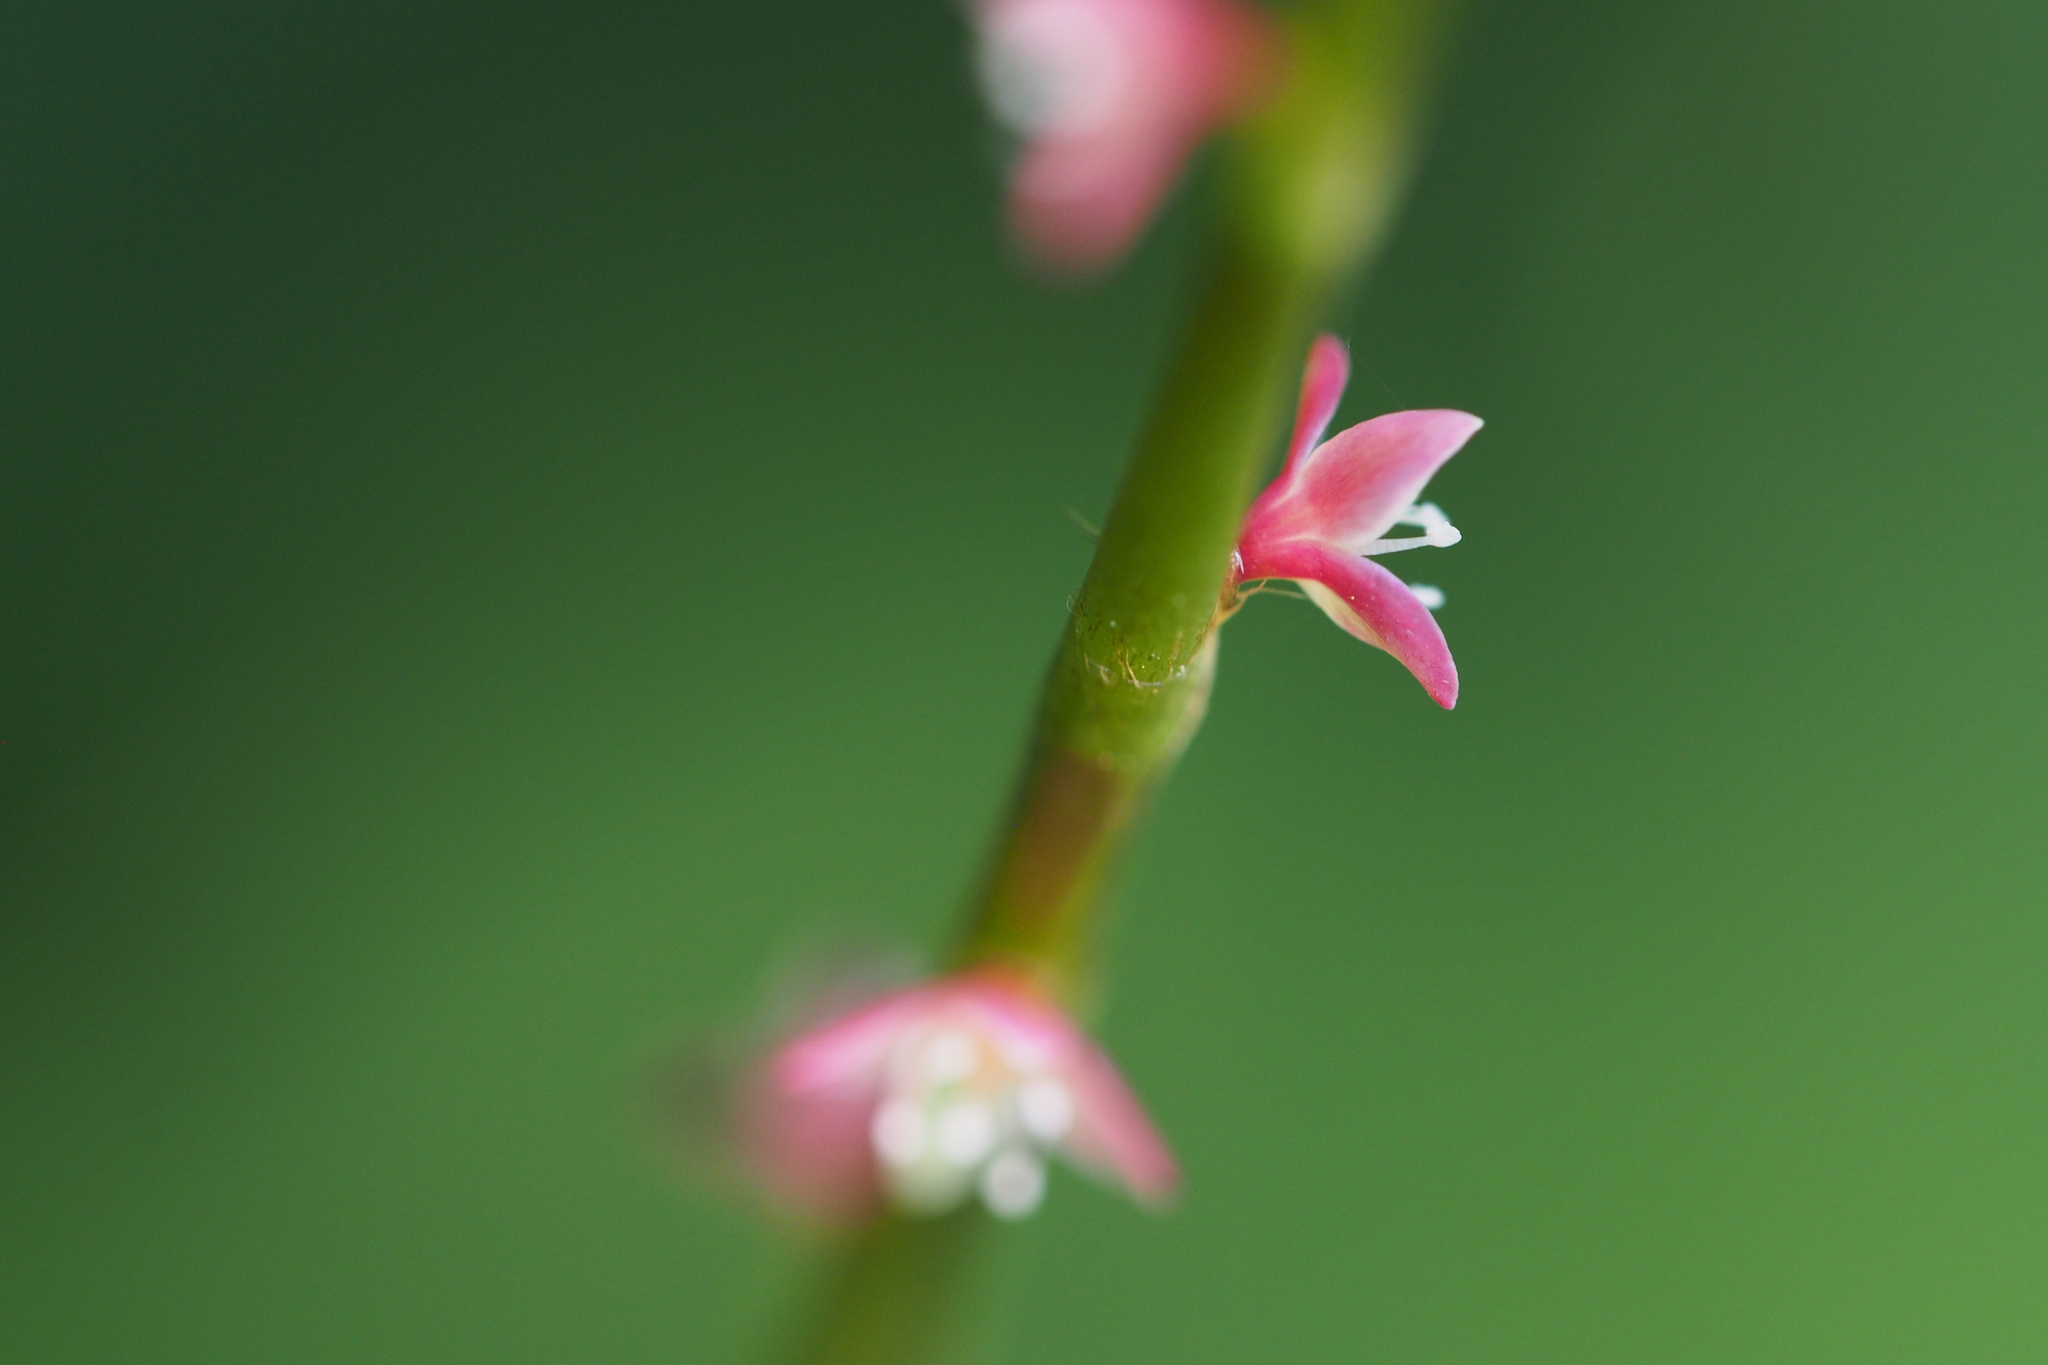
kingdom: Plantae
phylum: Tracheophyta
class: Magnoliopsida
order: Caryophyllales
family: Polygonaceae
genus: Persicaria
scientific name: Persicaria filiformis
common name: Asian jumpseed
